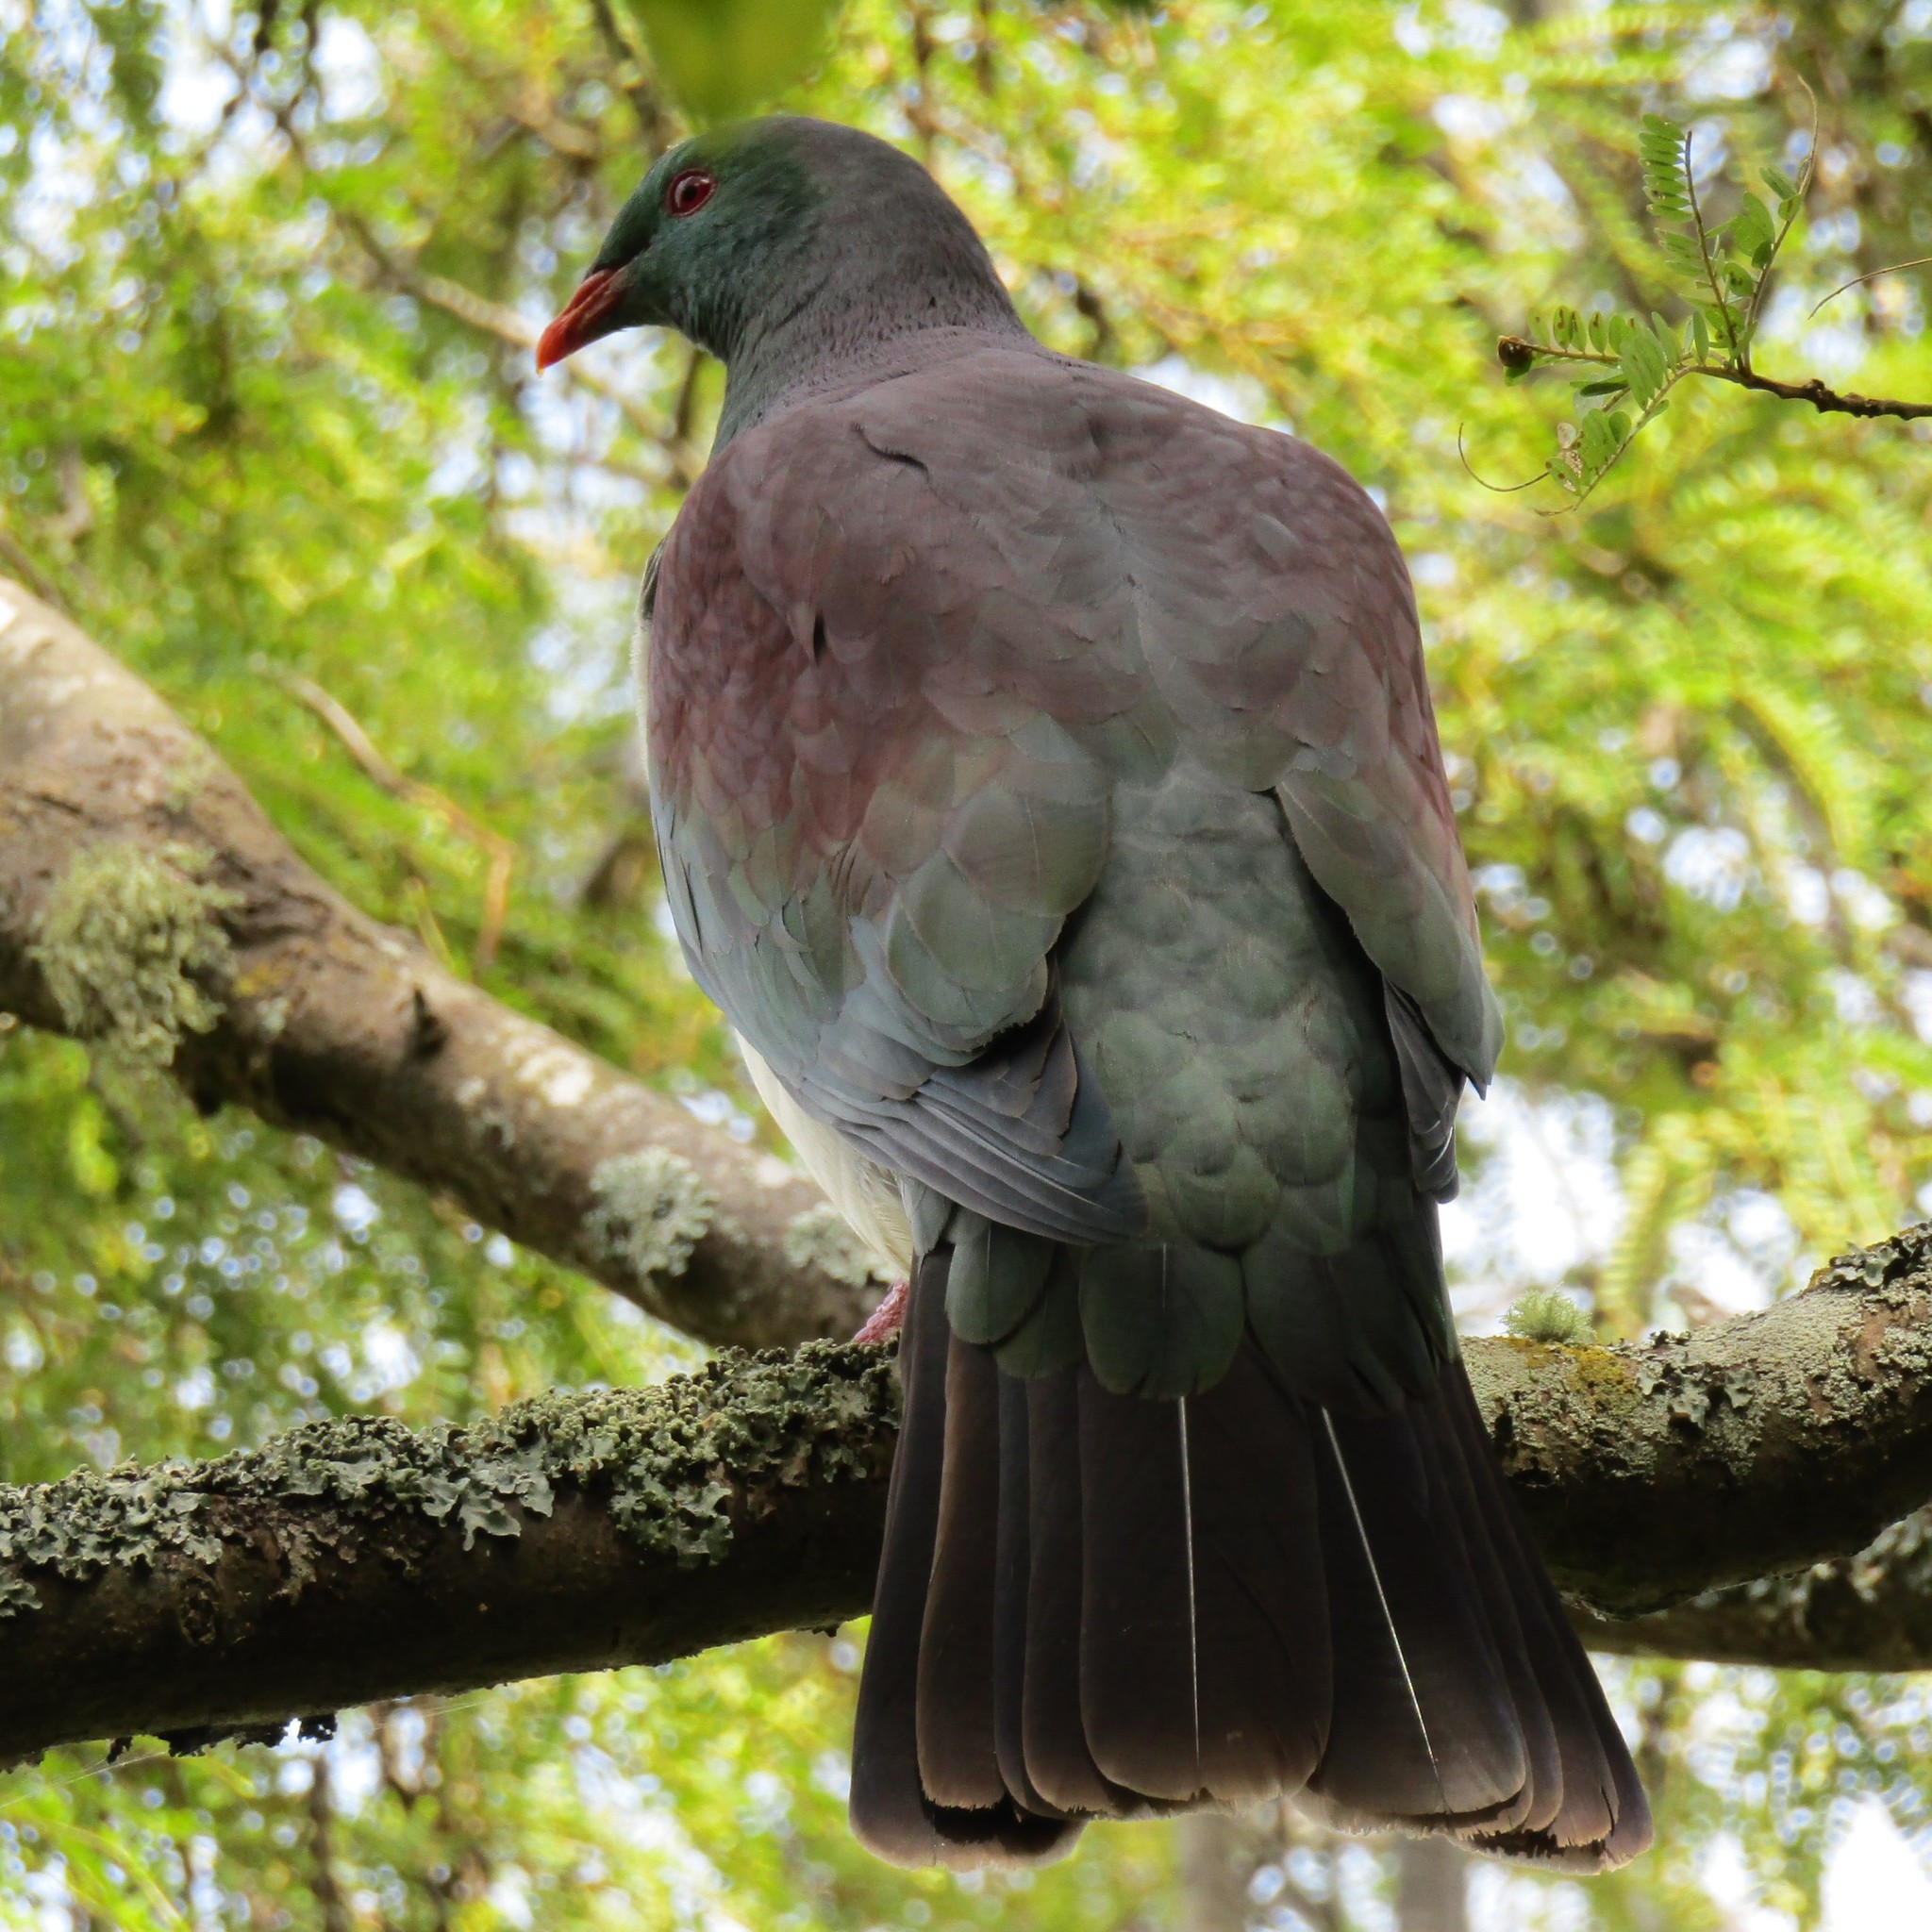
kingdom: Animalia
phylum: Chordata
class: Aves
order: Columbiformes
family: Columbidae
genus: Hemiphaga
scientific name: Hemiphaga novaeseelandiae
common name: New zealand pigeon
